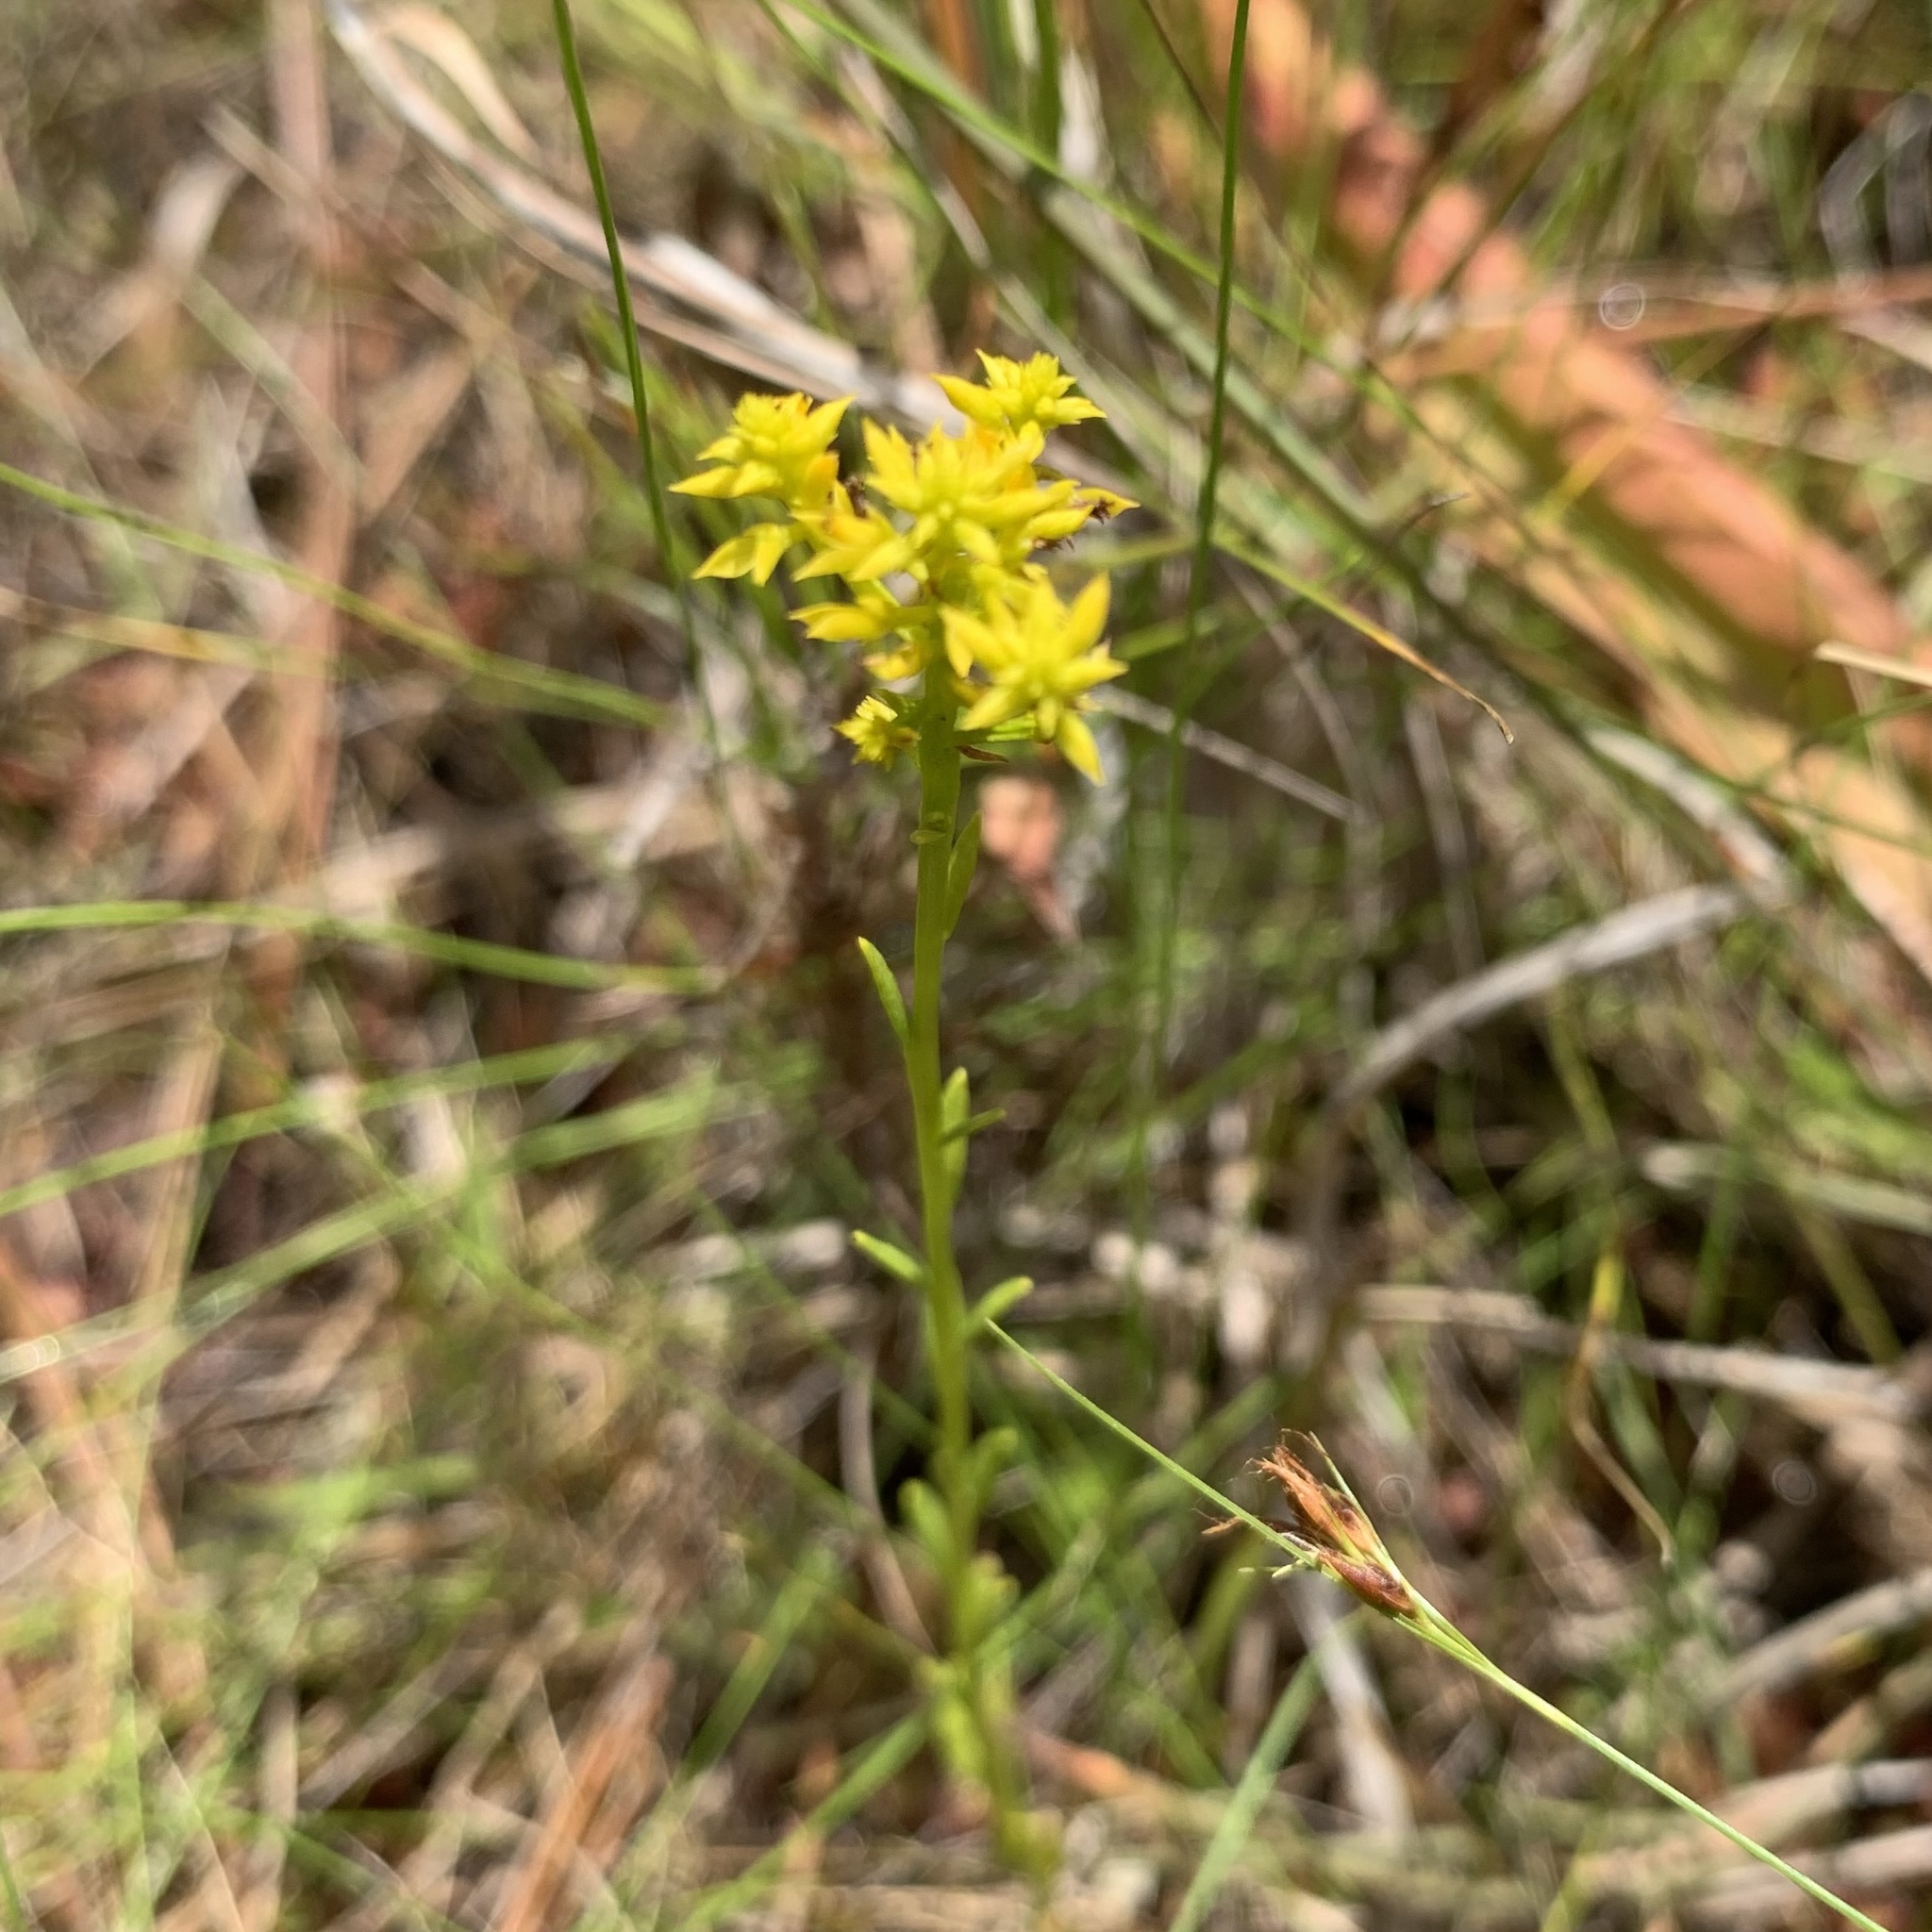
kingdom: Plantae
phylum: Tracheophyta
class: Magnoliopsida
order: Fabales
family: Polygalaceae
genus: Polygala
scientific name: Polygala ramosa
